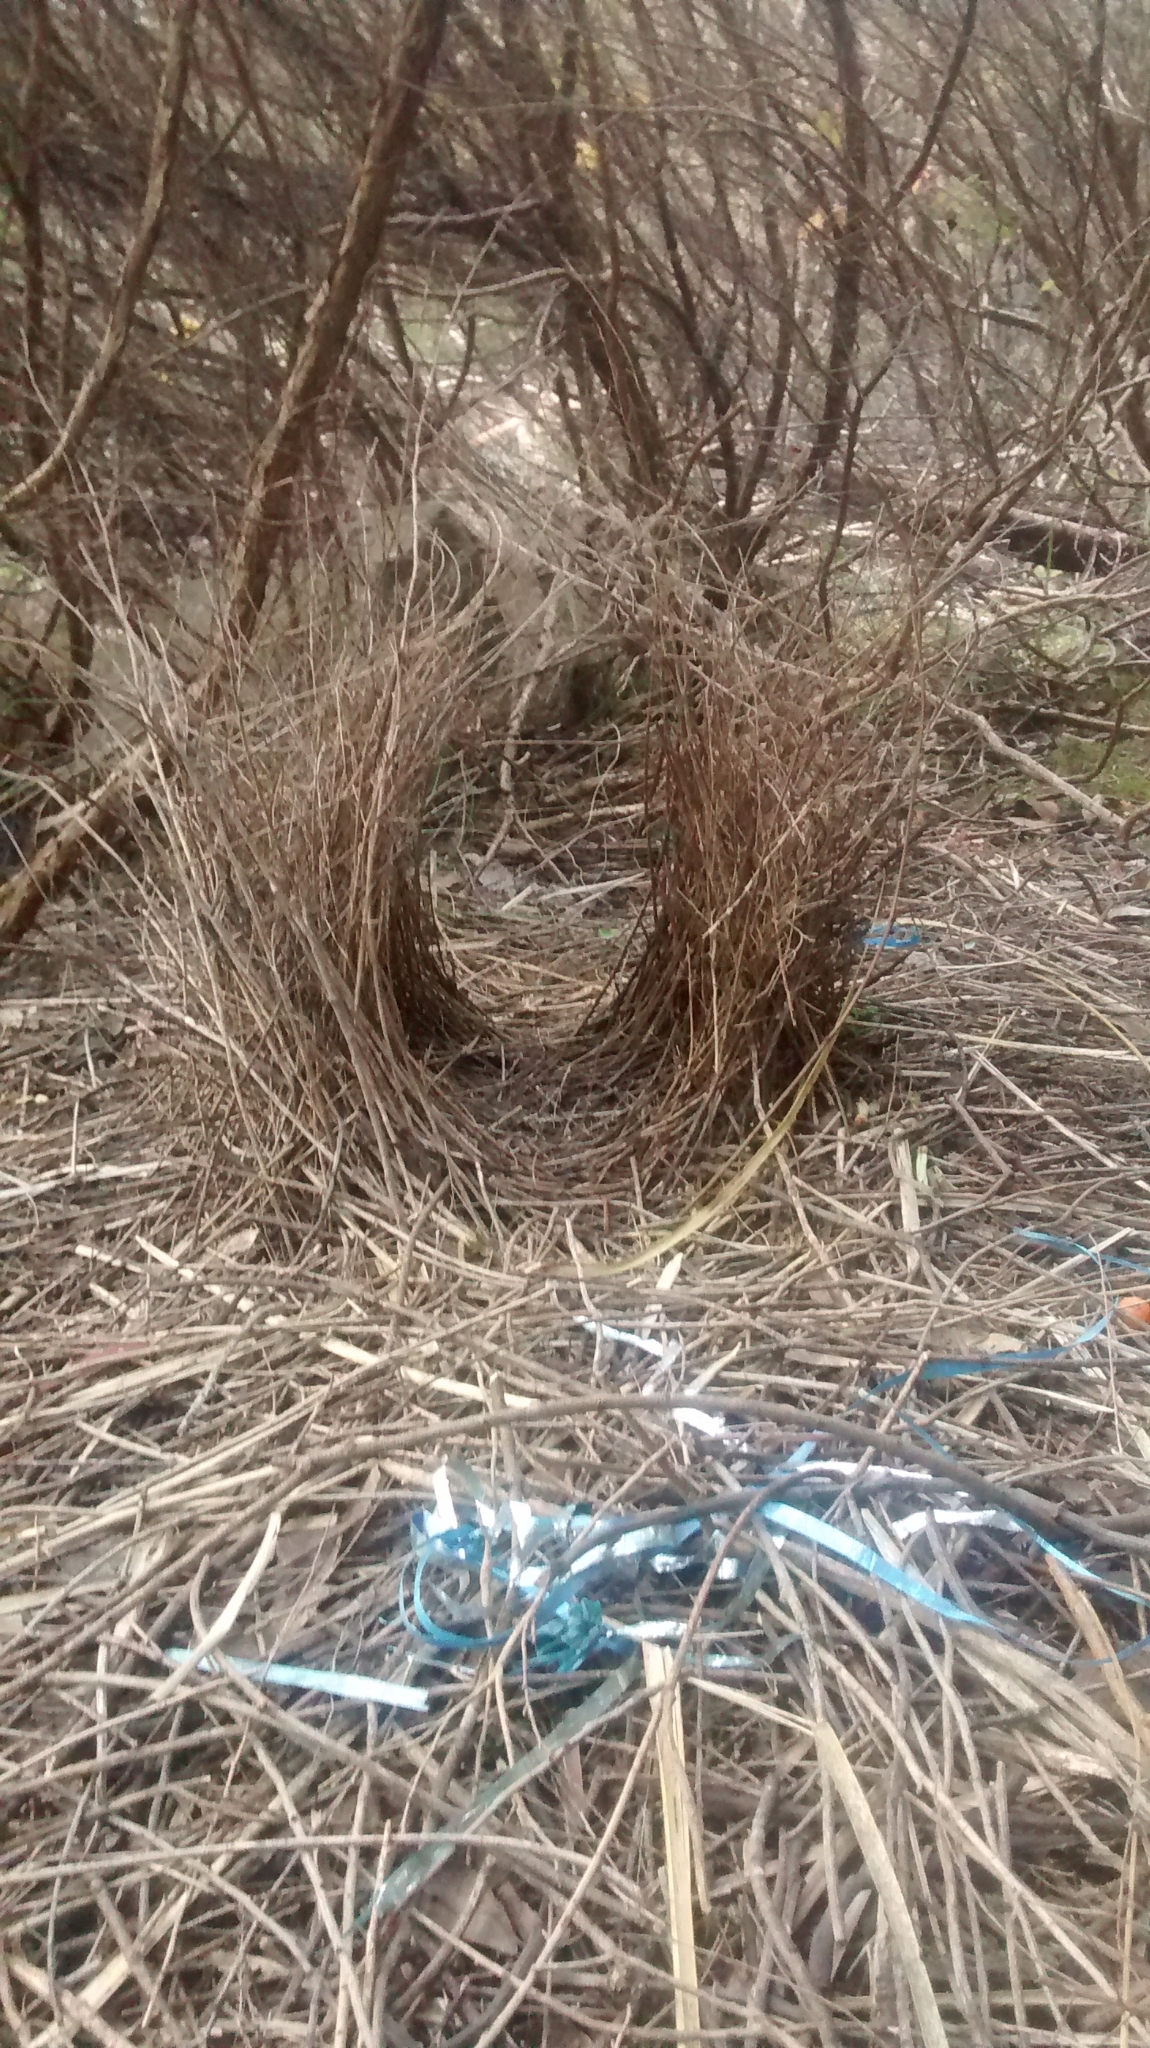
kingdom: Animalia
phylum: Chordata
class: Aves
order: Passeriformes
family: Ptilonorhynchidae
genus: Ptilonorhynchus
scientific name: Ptilonorhynchus violaceus
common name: Satin bowerbird
